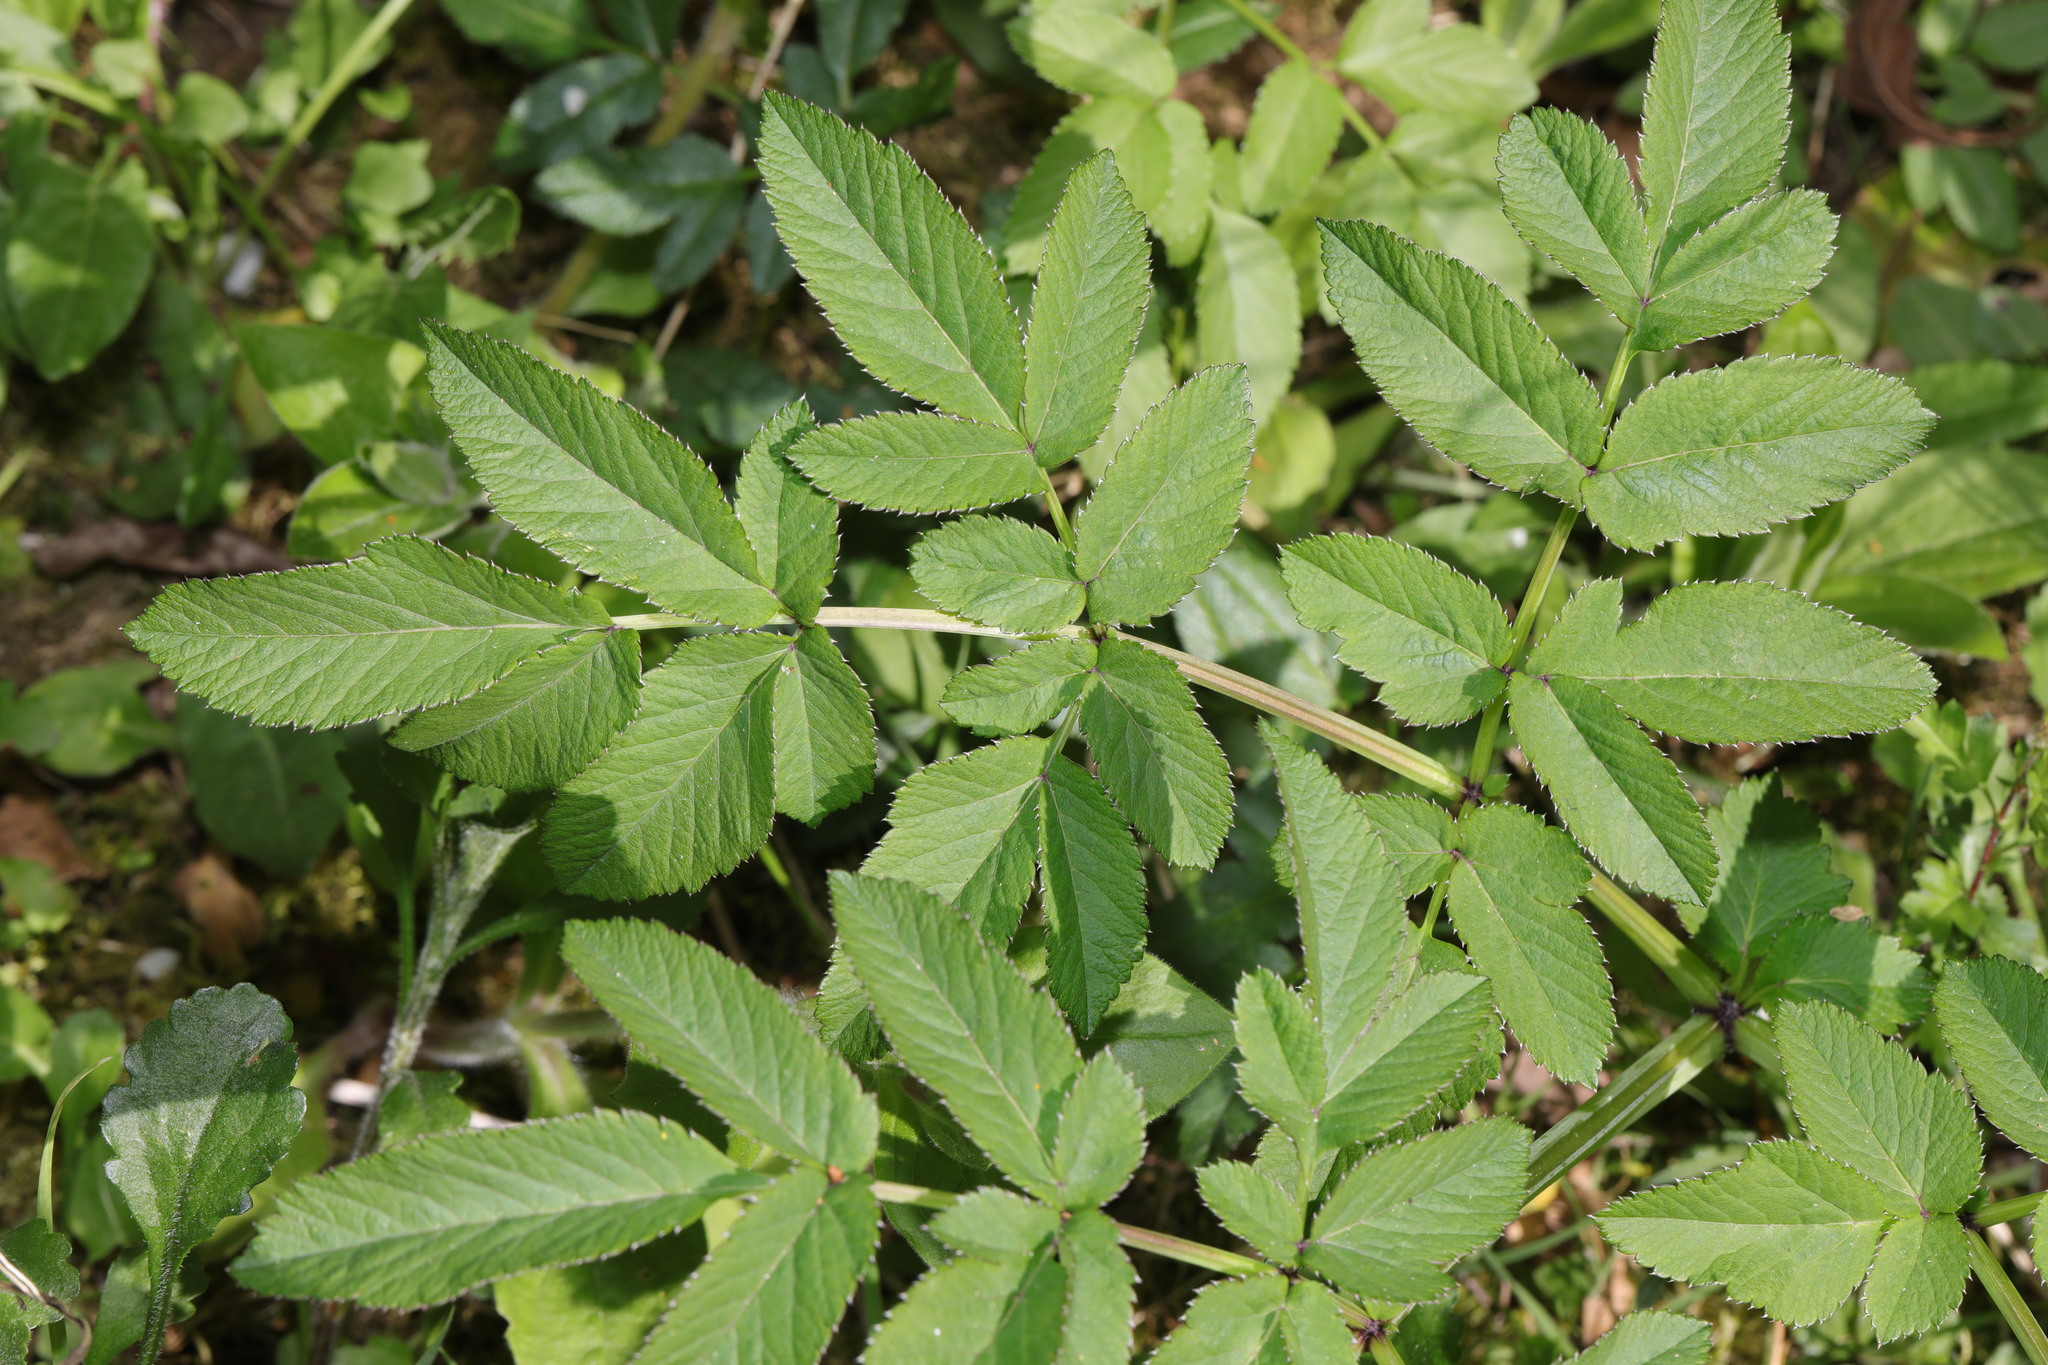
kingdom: Plantae
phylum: Tracheophyta
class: Magnoliopsida
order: Apiales
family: Apiaceae
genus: Angelica
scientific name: Angelica sylvestris
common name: Wild angelica
